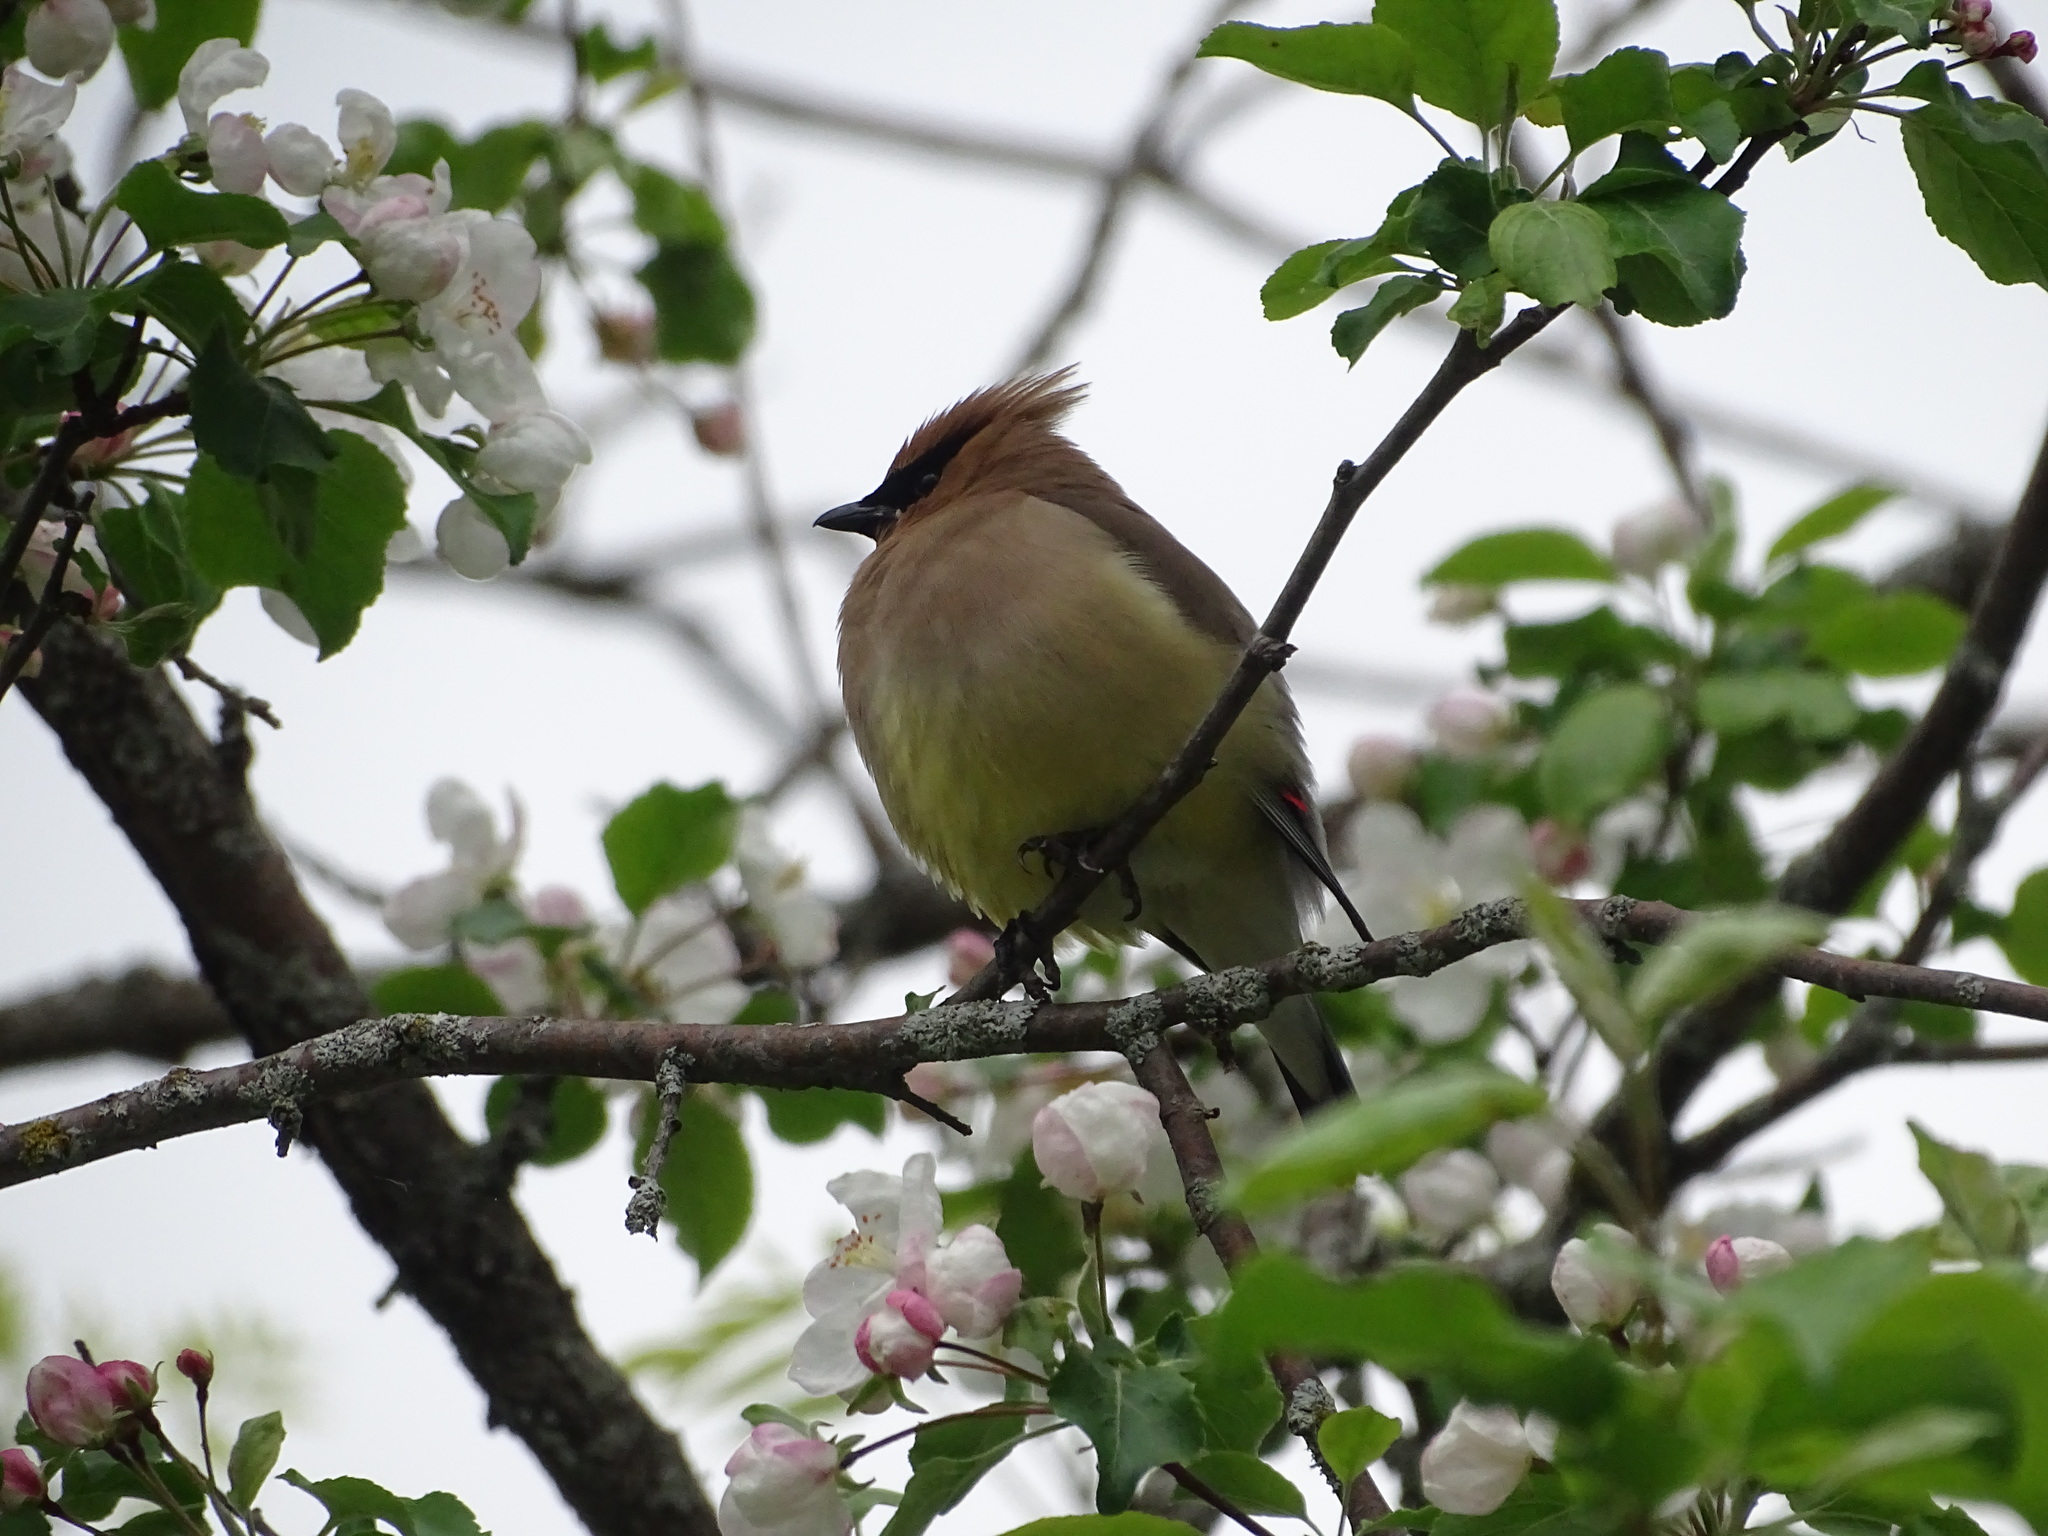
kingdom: Animalia
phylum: Chordata
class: Aves
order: Passeriformes
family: Bombycillidae
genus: Bombycilla
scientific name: Bombycilla cedrorum
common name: Cedar waxwing
